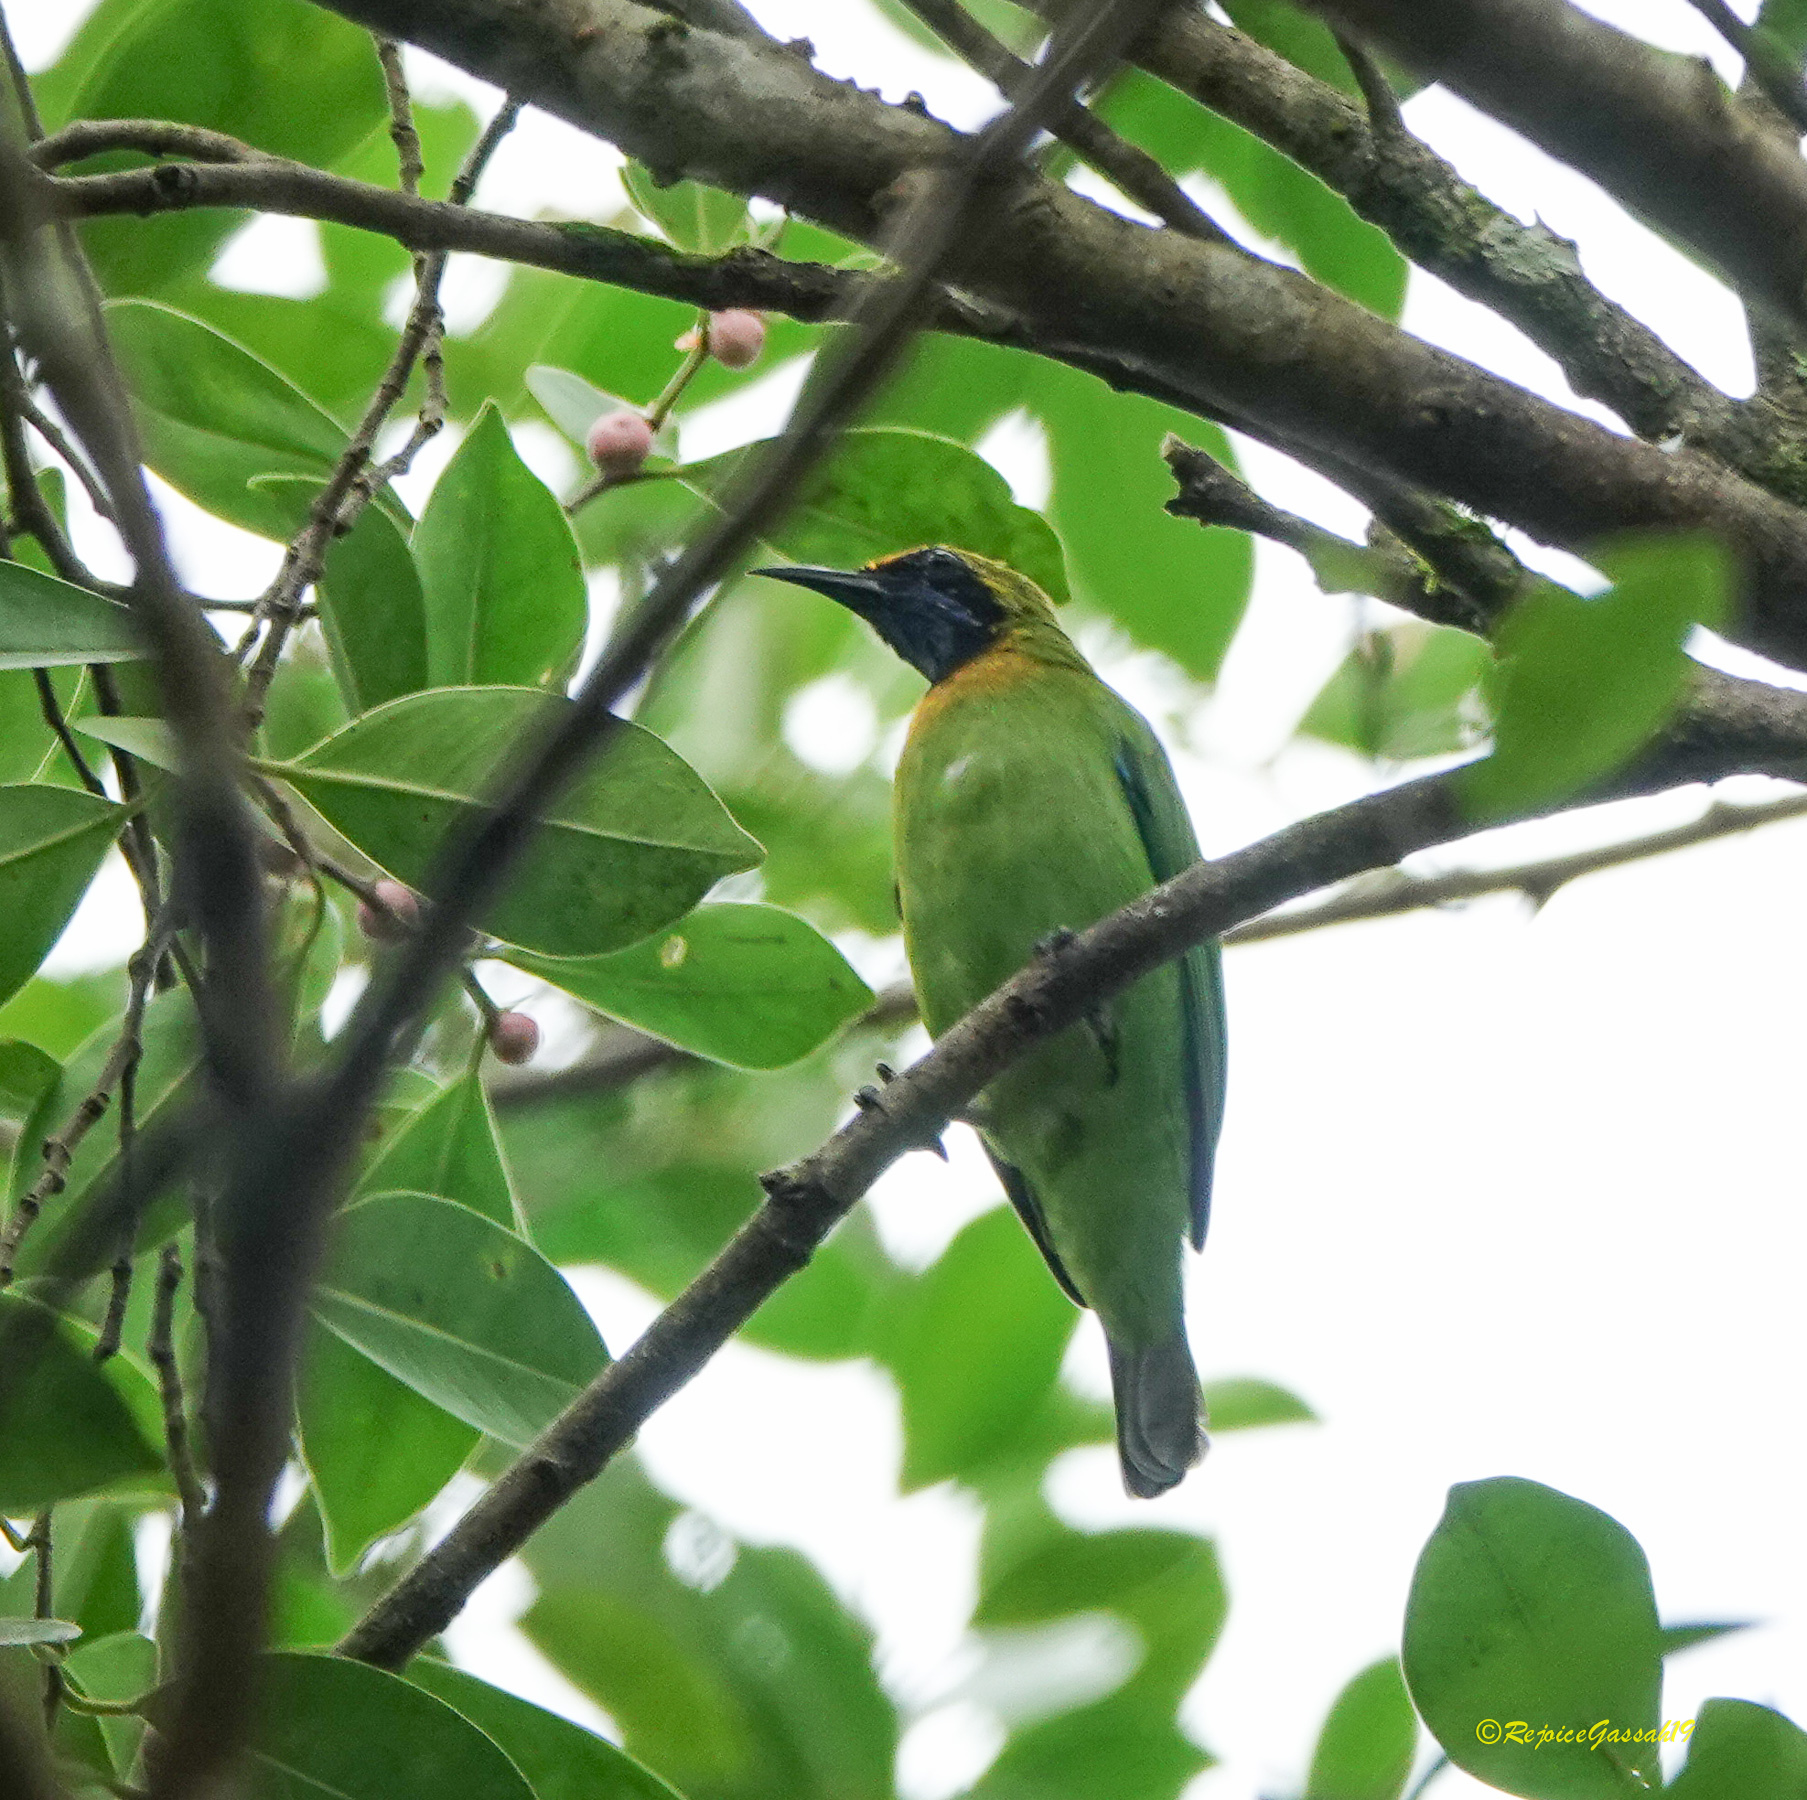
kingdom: Animalia
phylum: Chordata
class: Aves
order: Passeriformes
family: Chloropseidae
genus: Chloropsis
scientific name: Chloropsis aurifrons
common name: Golden-fronted leafbird
